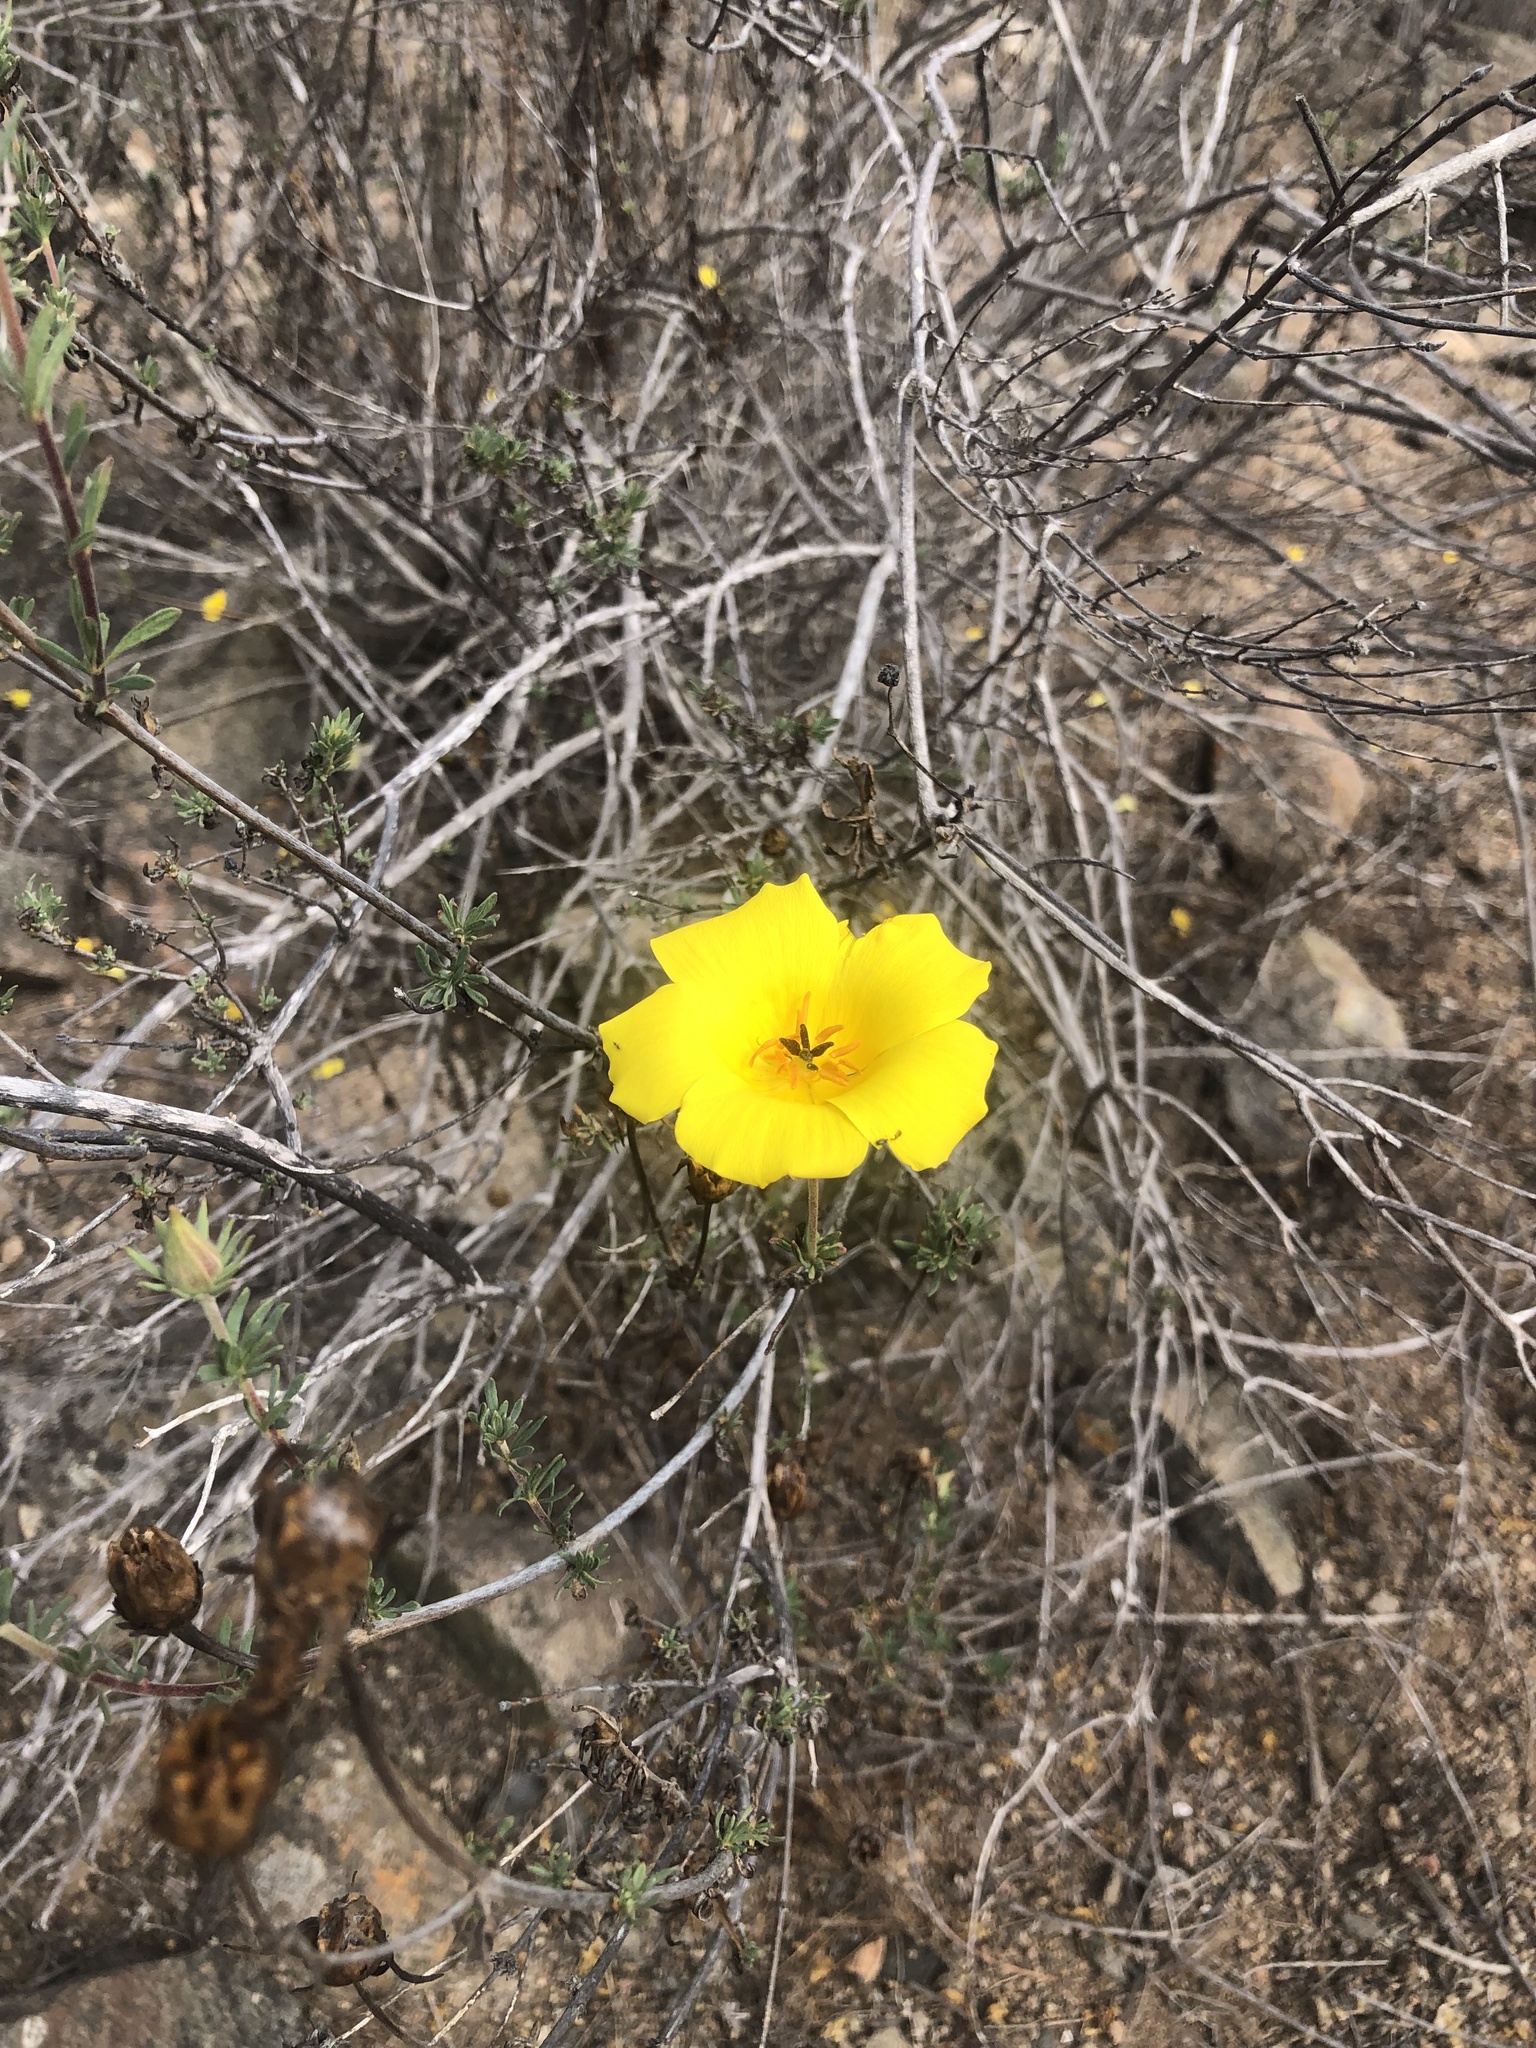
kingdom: Plantae
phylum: Tracheophyta
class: Magnoliopsida
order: Geraniales
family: Vivianiaceae
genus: Balbisia
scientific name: Balbisia peduncularis
